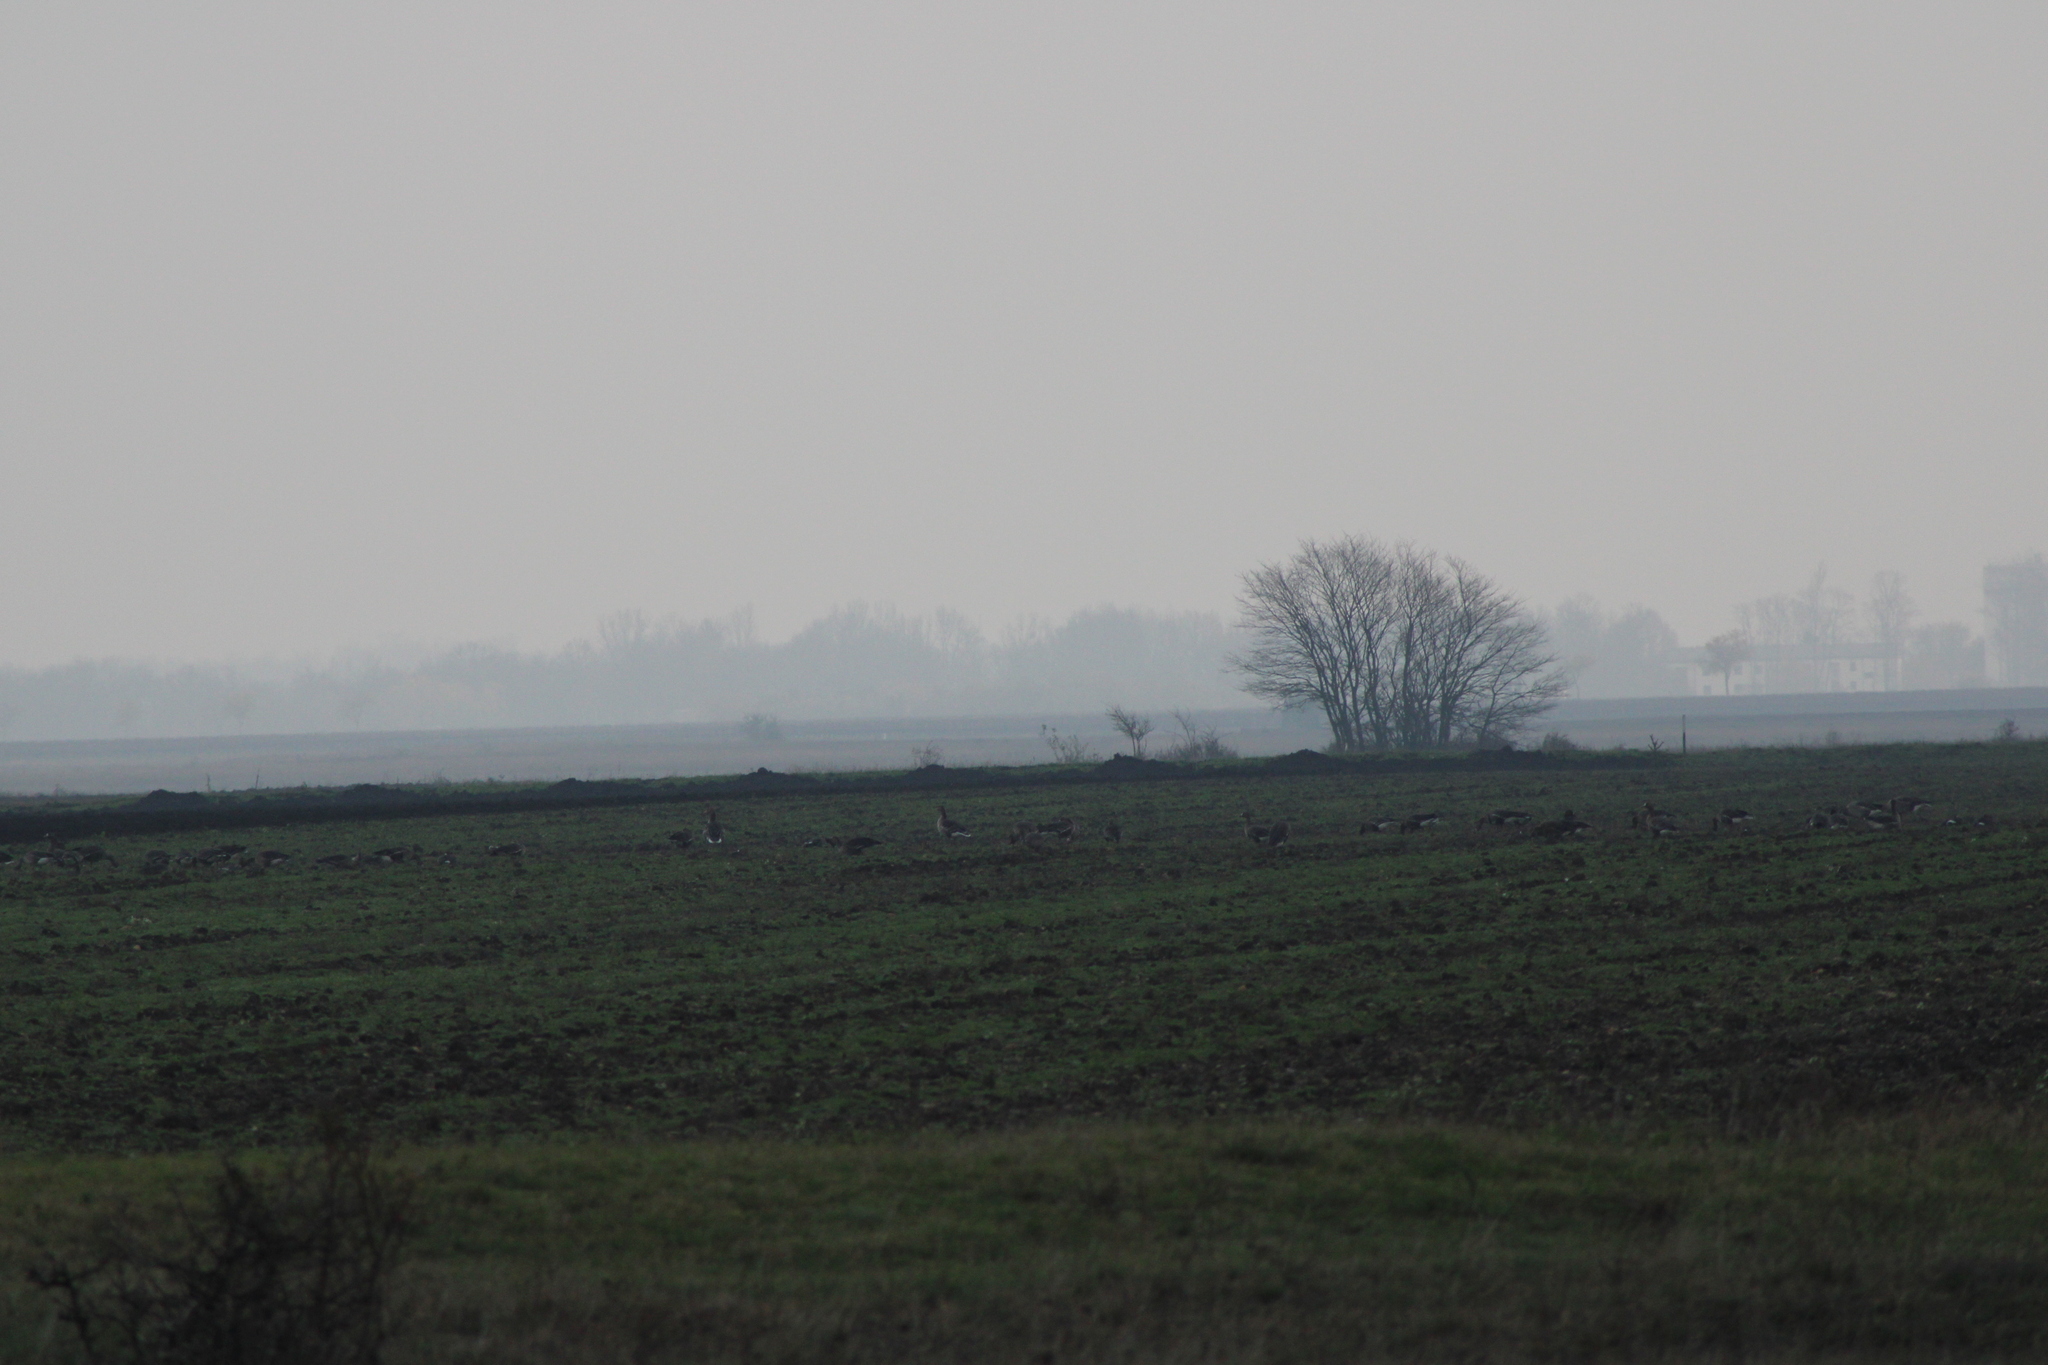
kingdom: Animalia
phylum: Chordata
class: Aves
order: Anseriformes
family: Anatidae
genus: Anser
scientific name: Anser anser
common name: Greylag goose
